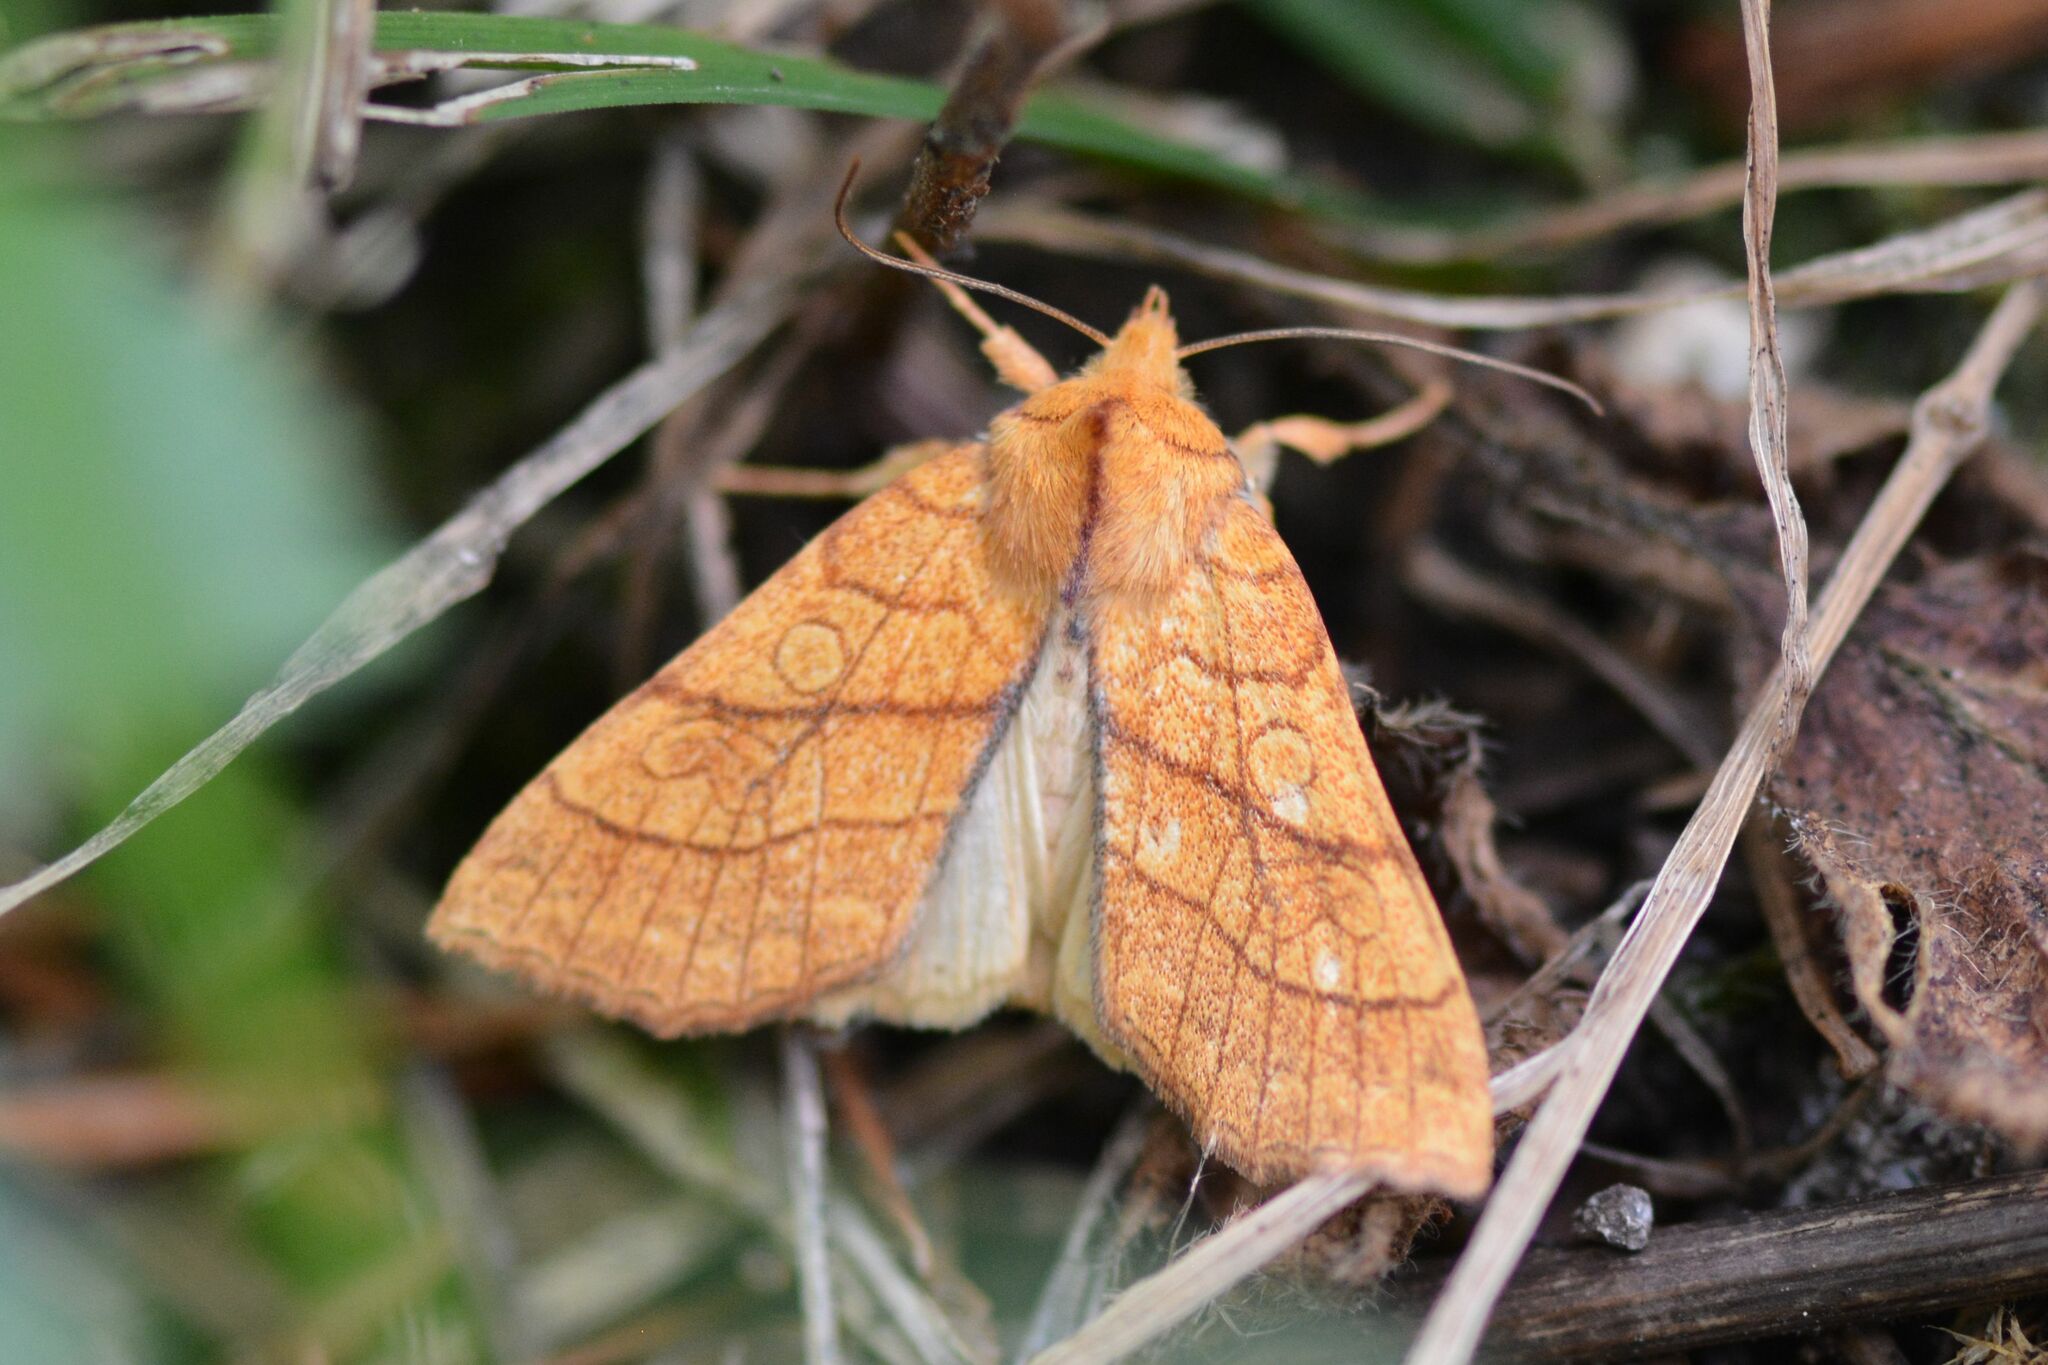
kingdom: Animalia
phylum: Arthropoda
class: Insecta
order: Lepidoptera
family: Noctuidae
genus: Tiliacea
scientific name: Tiliacea citrago
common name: Orange sallow
